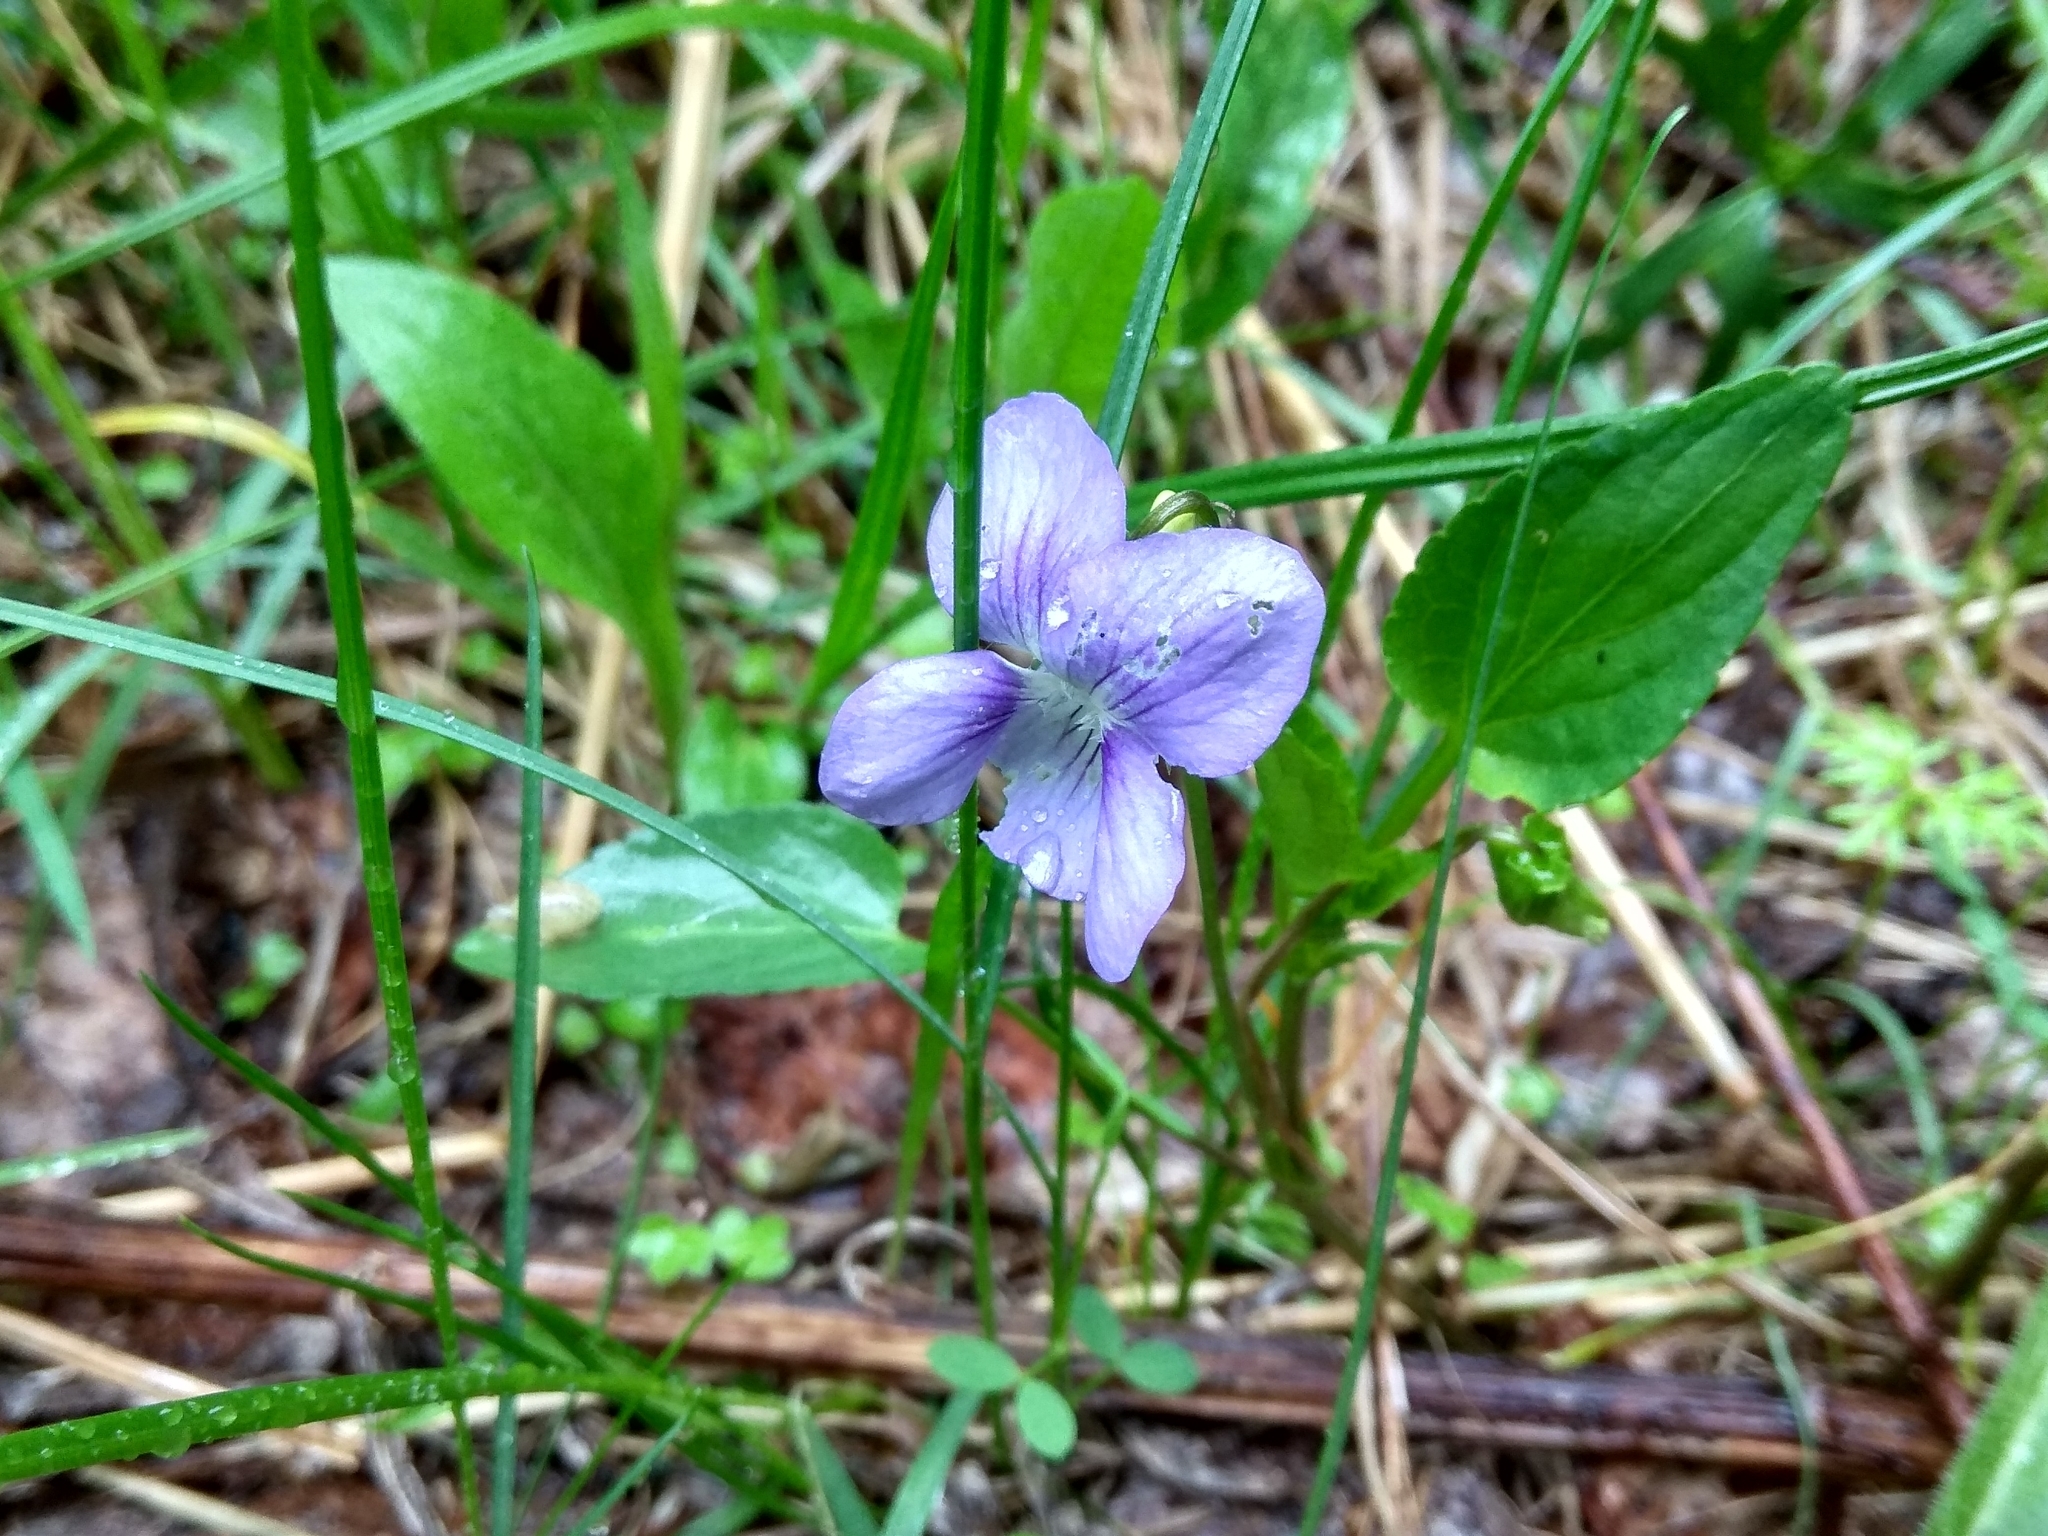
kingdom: Plantae
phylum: Tracheophyta
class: Magnoliopsida
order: Malpighiales
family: Violaceae
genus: Viola
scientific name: Viola
